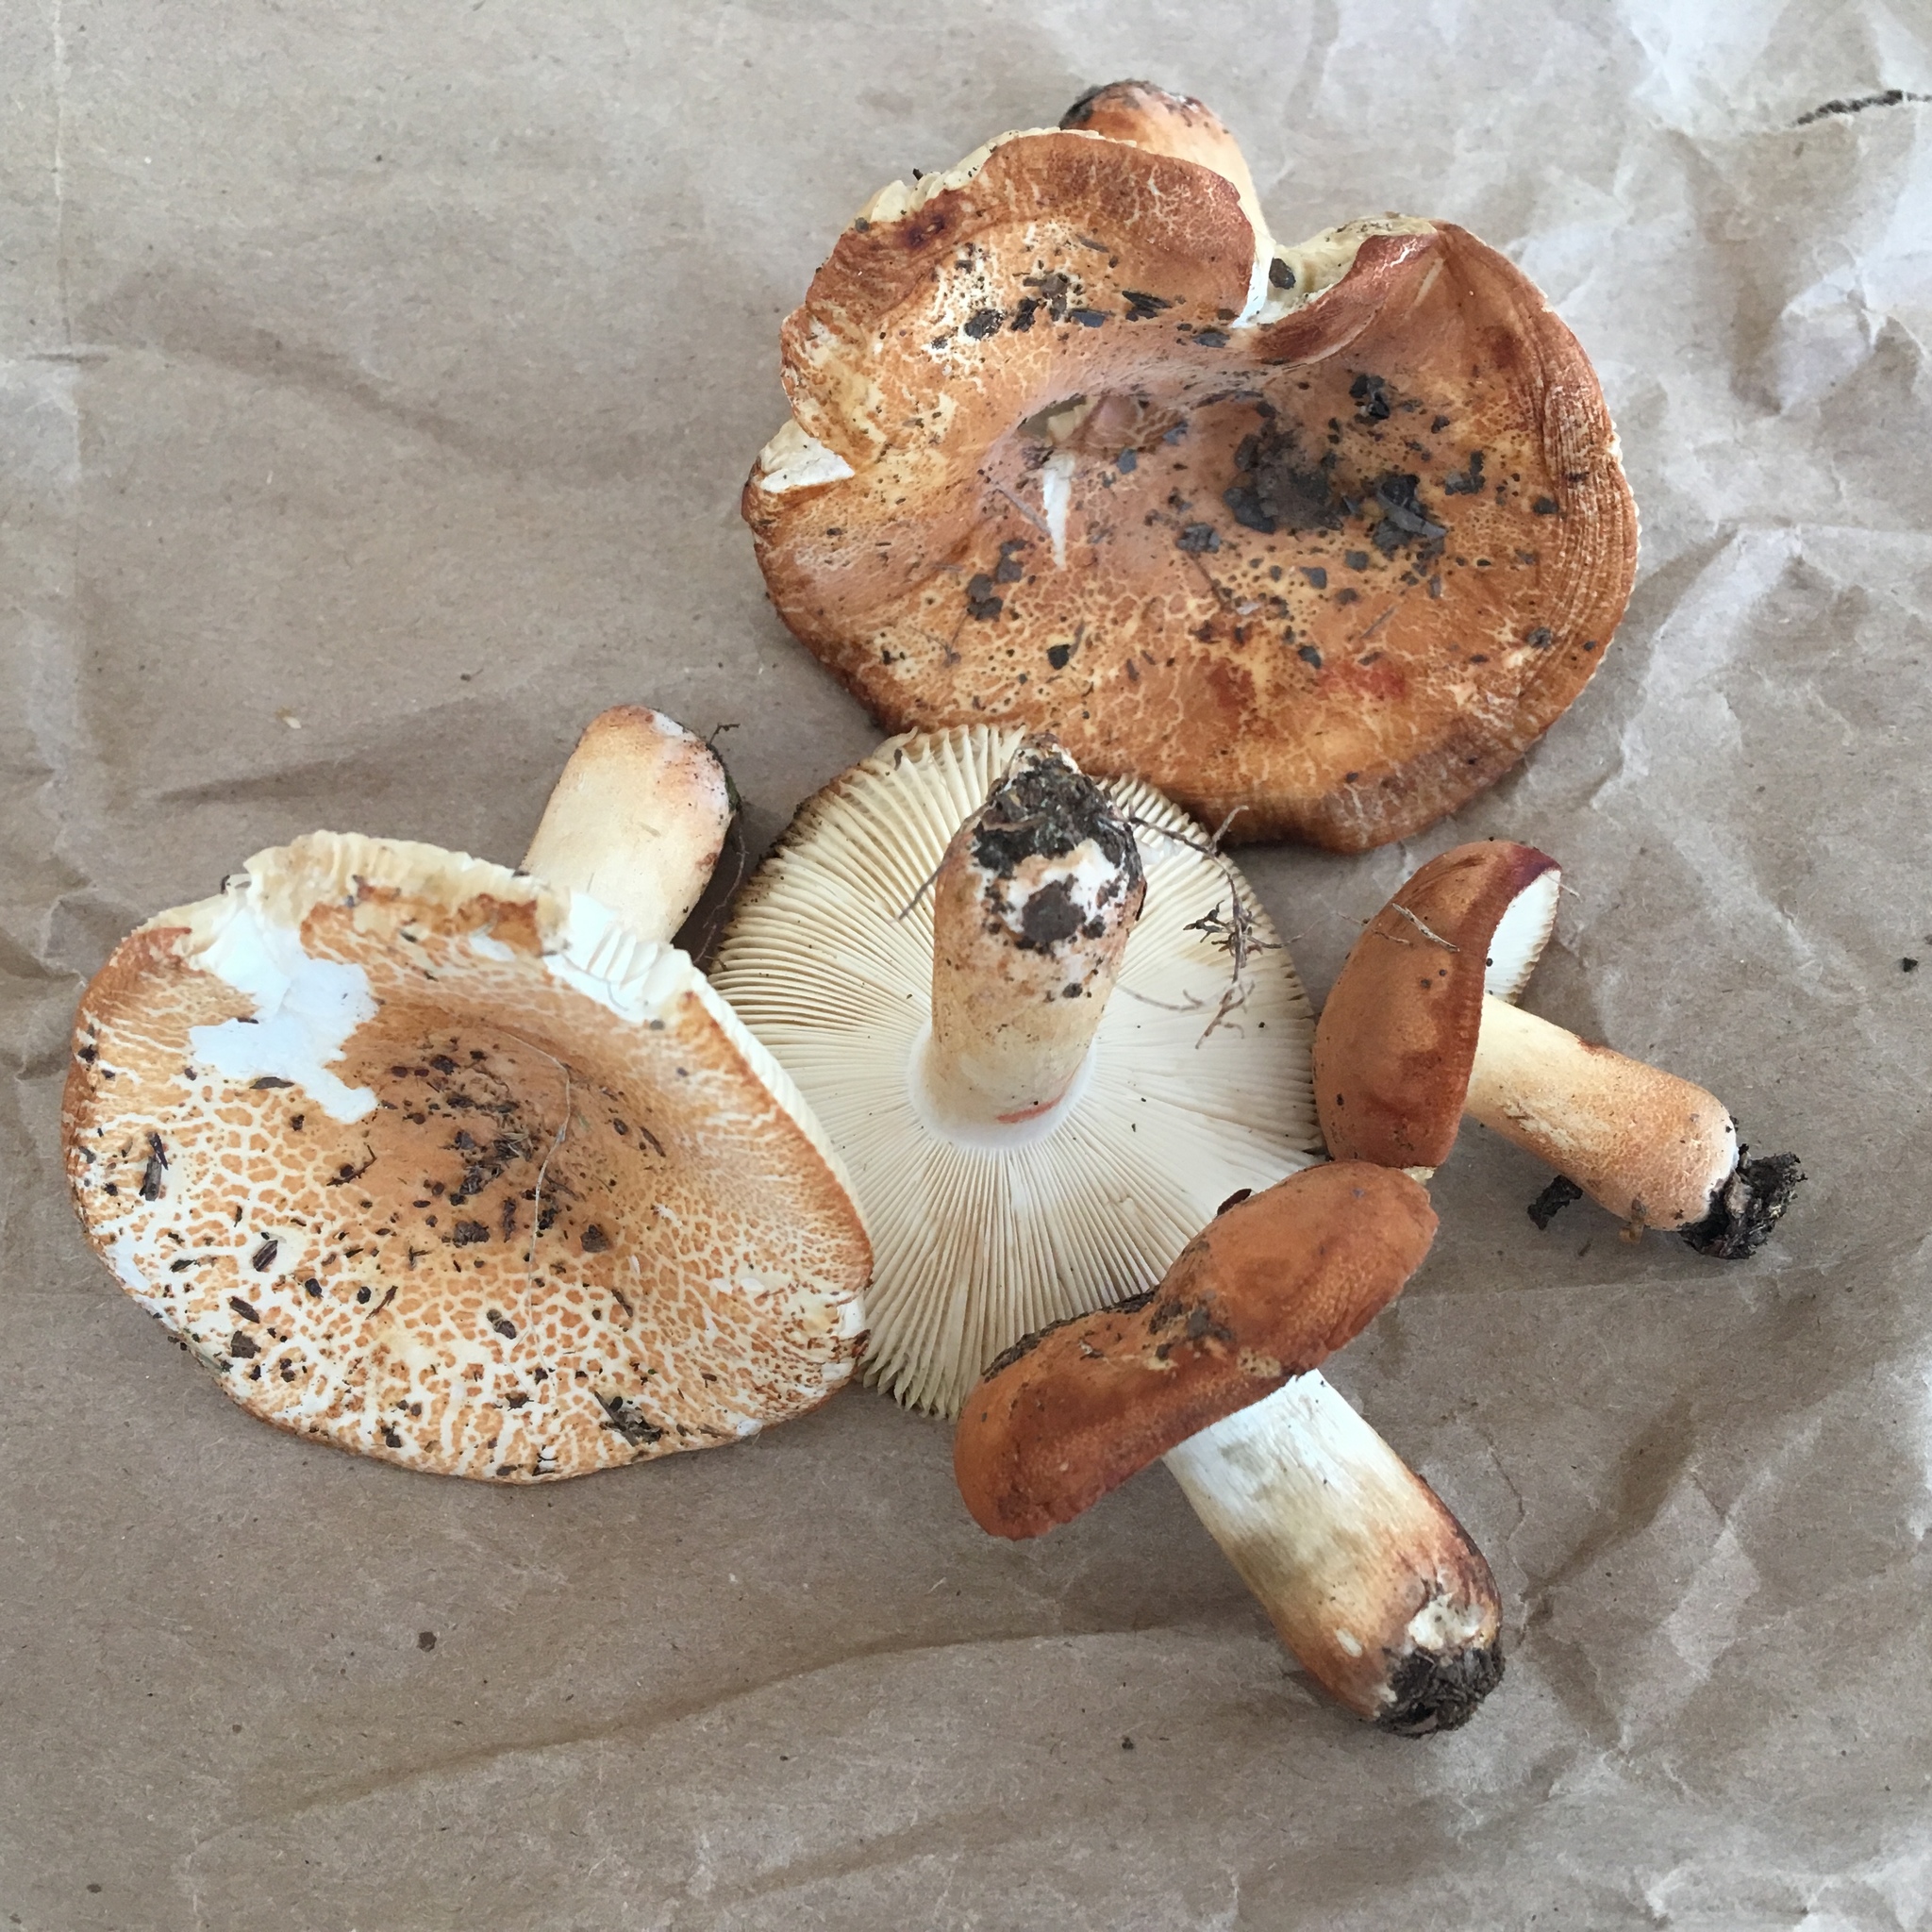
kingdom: Fungi
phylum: Basidiomycota
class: Agaricomycetes
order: Russulales
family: Russulaceae
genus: Russula
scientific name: Russula ballouii
